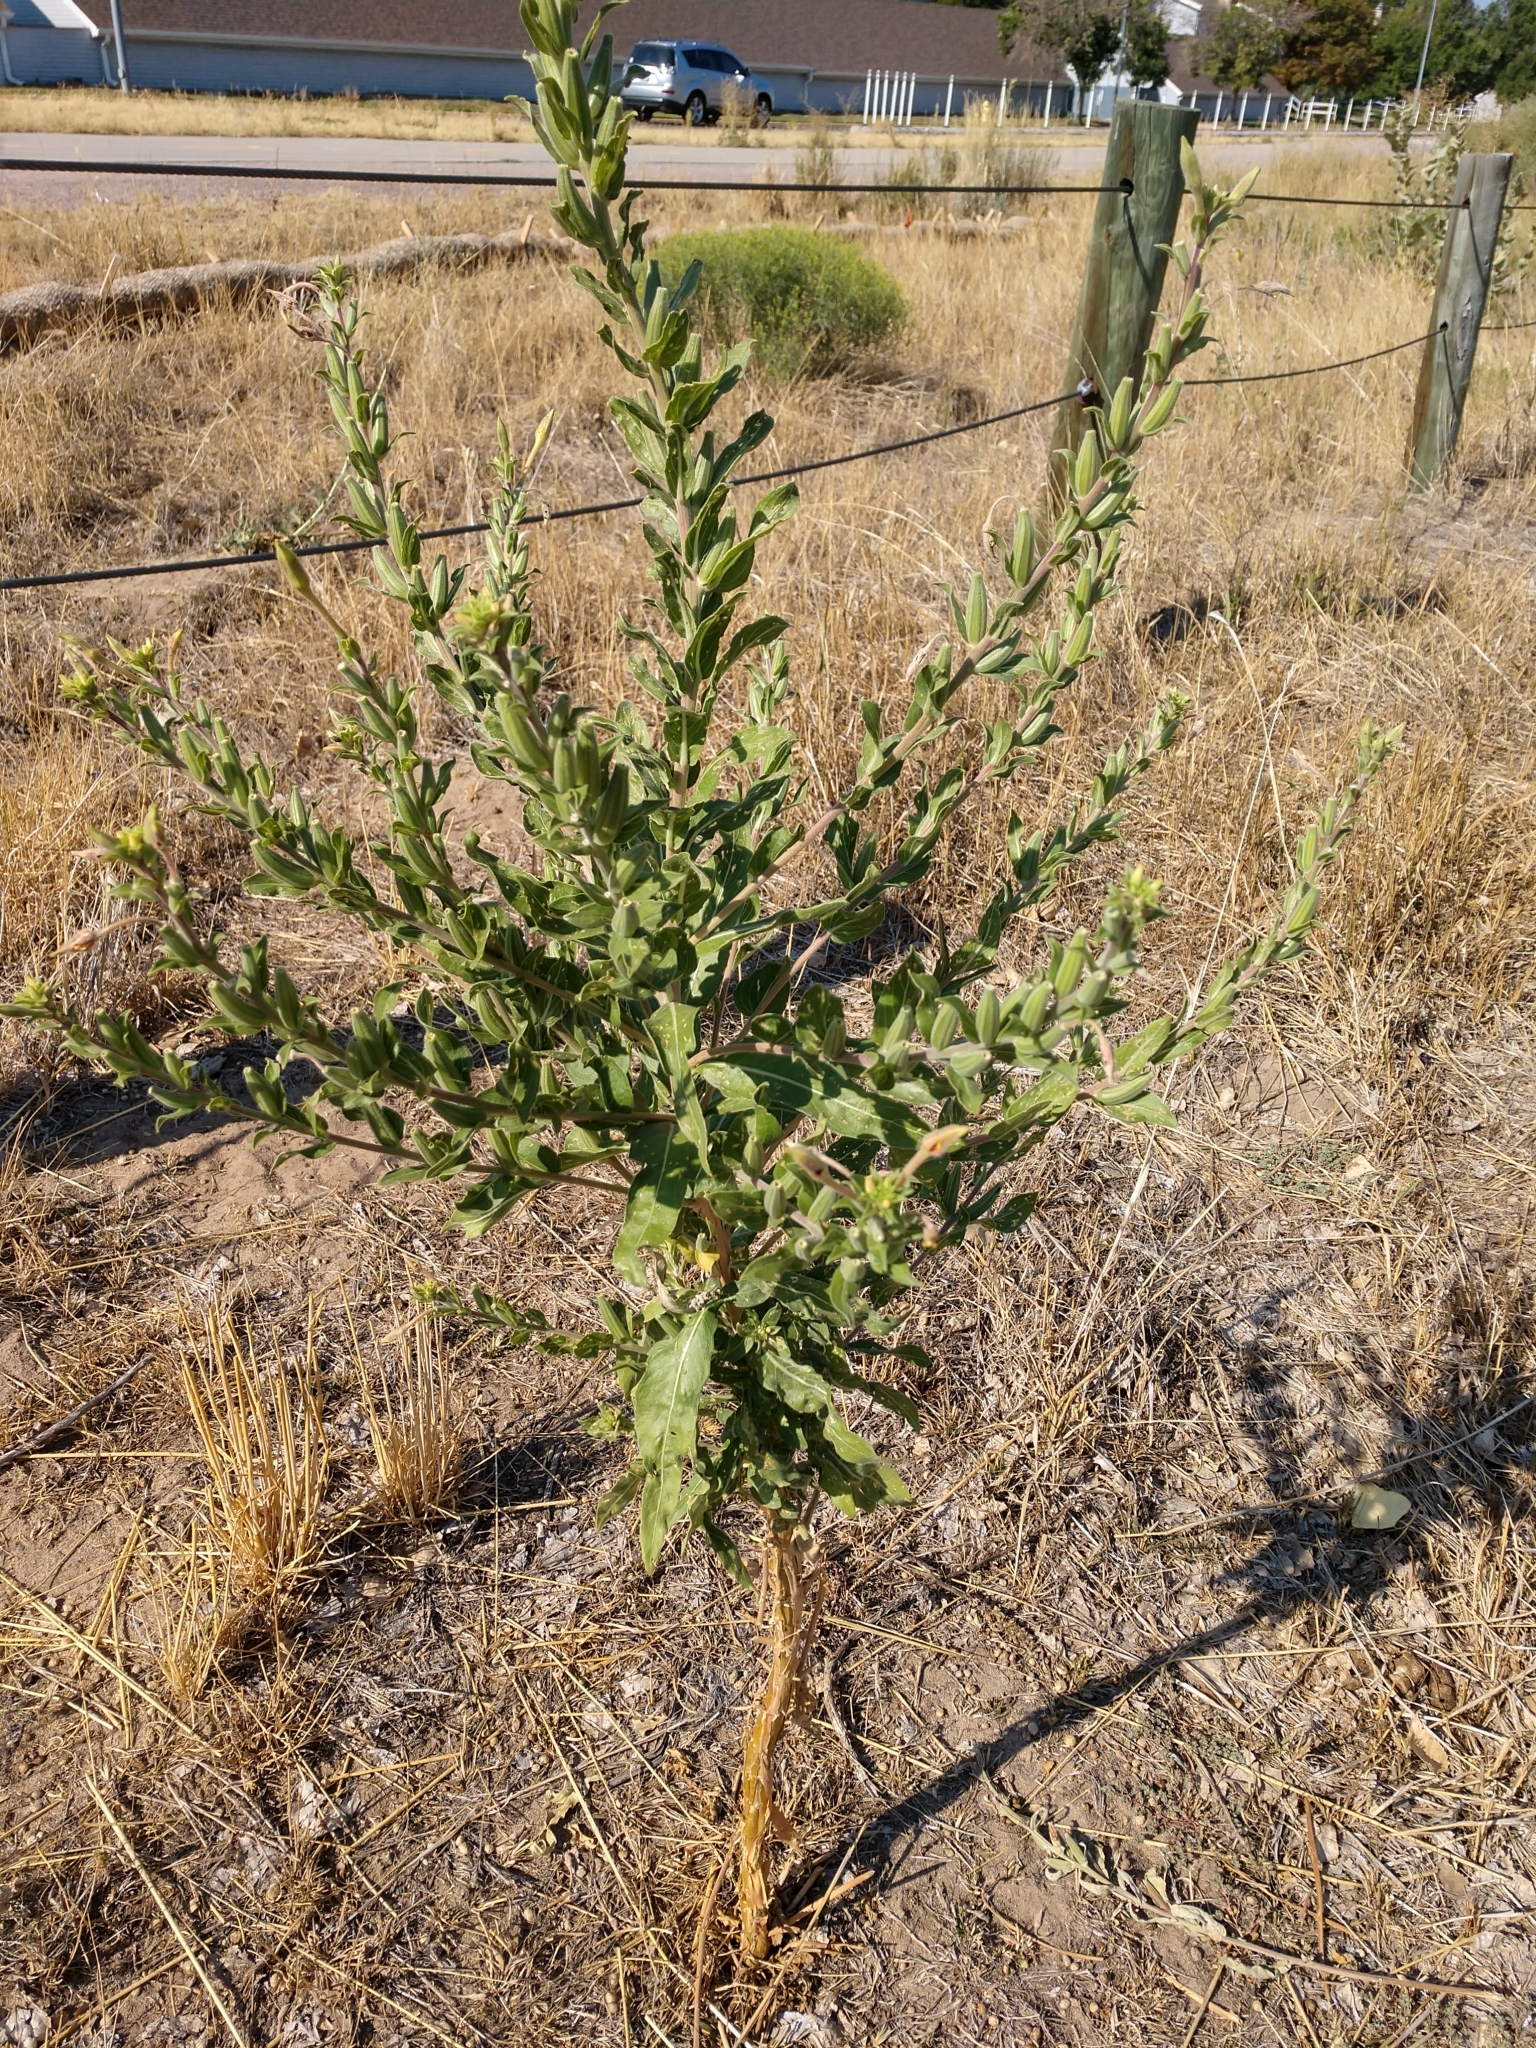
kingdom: Plantae
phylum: Tracheophyta
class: Magnoliopsida
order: Myrtales
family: Onagraceae
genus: Oenothera
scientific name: Oenothera villosa
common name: Hairy evening-primrose
